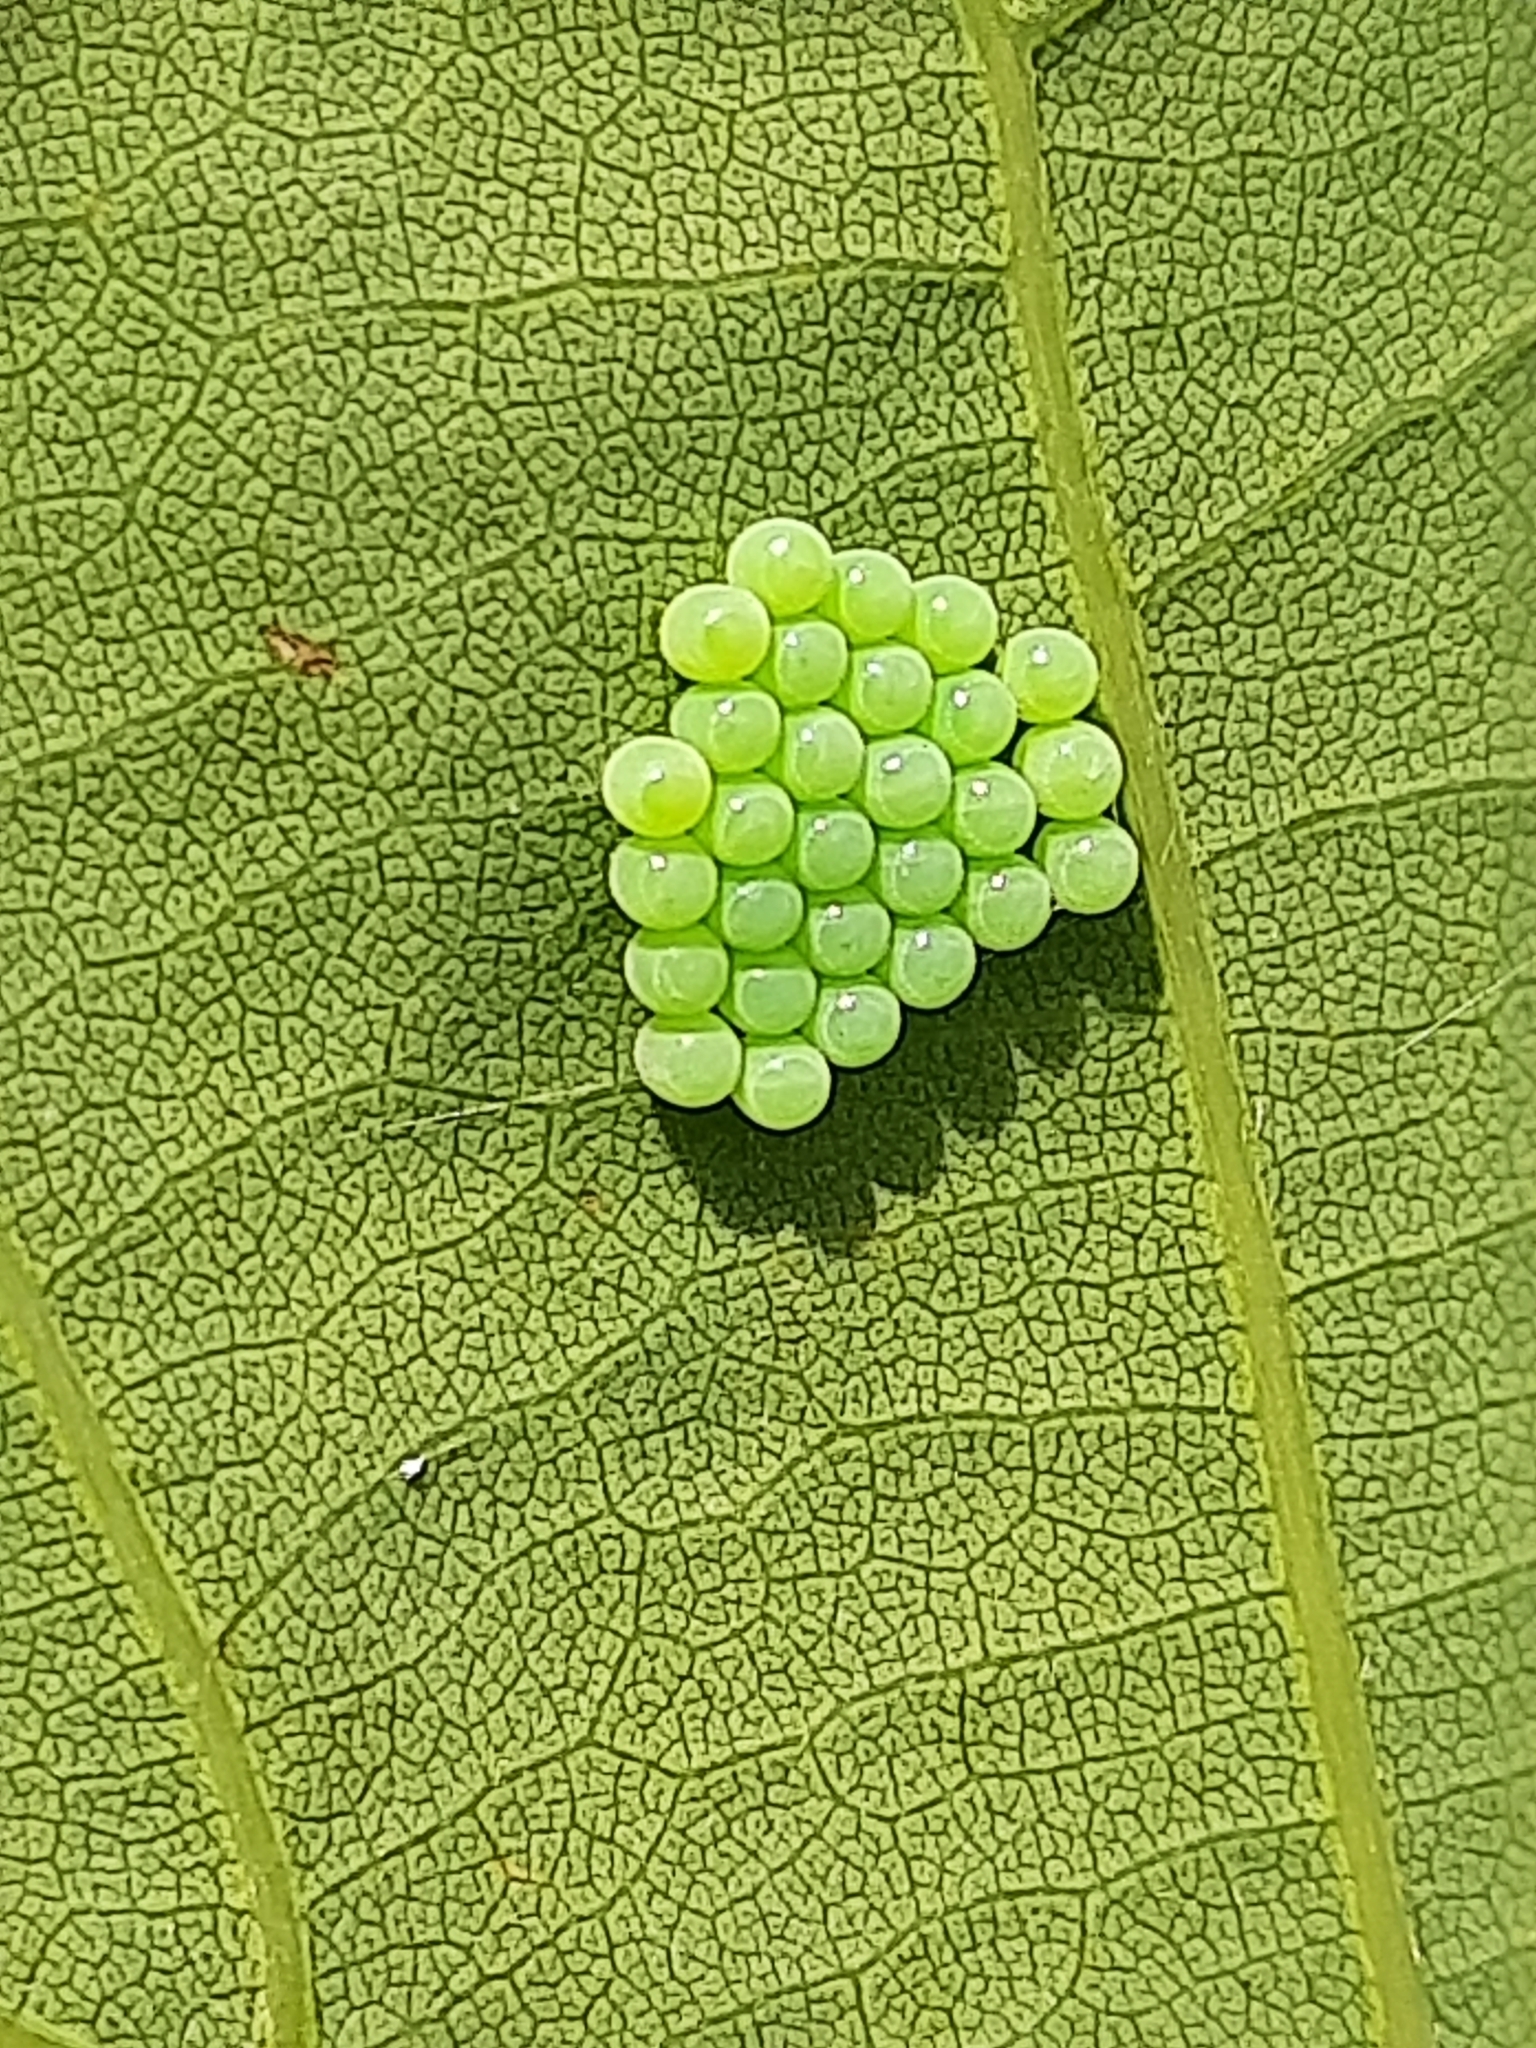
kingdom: Animalia
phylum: Arthropoda
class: Insecta
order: Hemiptera
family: Pentatomidae
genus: Palomena
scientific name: Palomena prasina
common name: Green shieldbug
